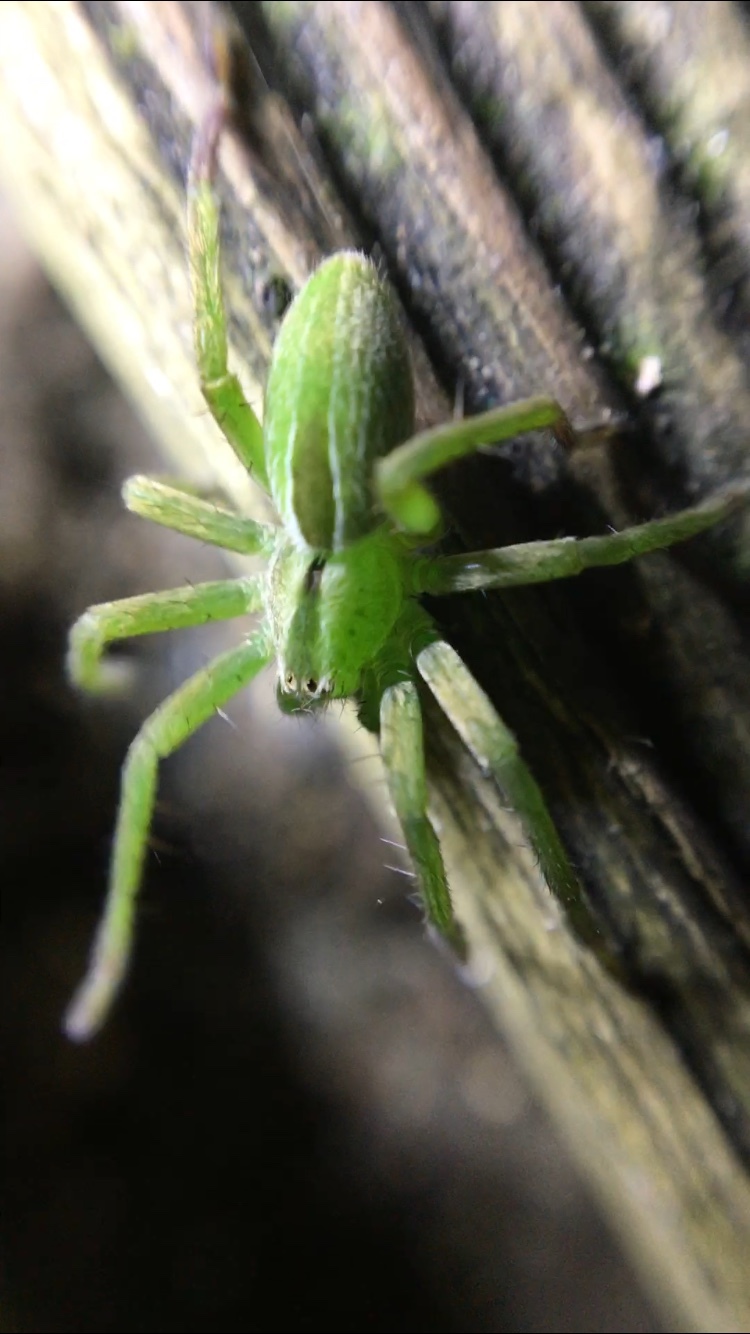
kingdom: Animalia
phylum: Arthropoda
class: Arachnida
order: Araneae
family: Sparassidae
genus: Micrommata
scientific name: Micrommata ligurina
